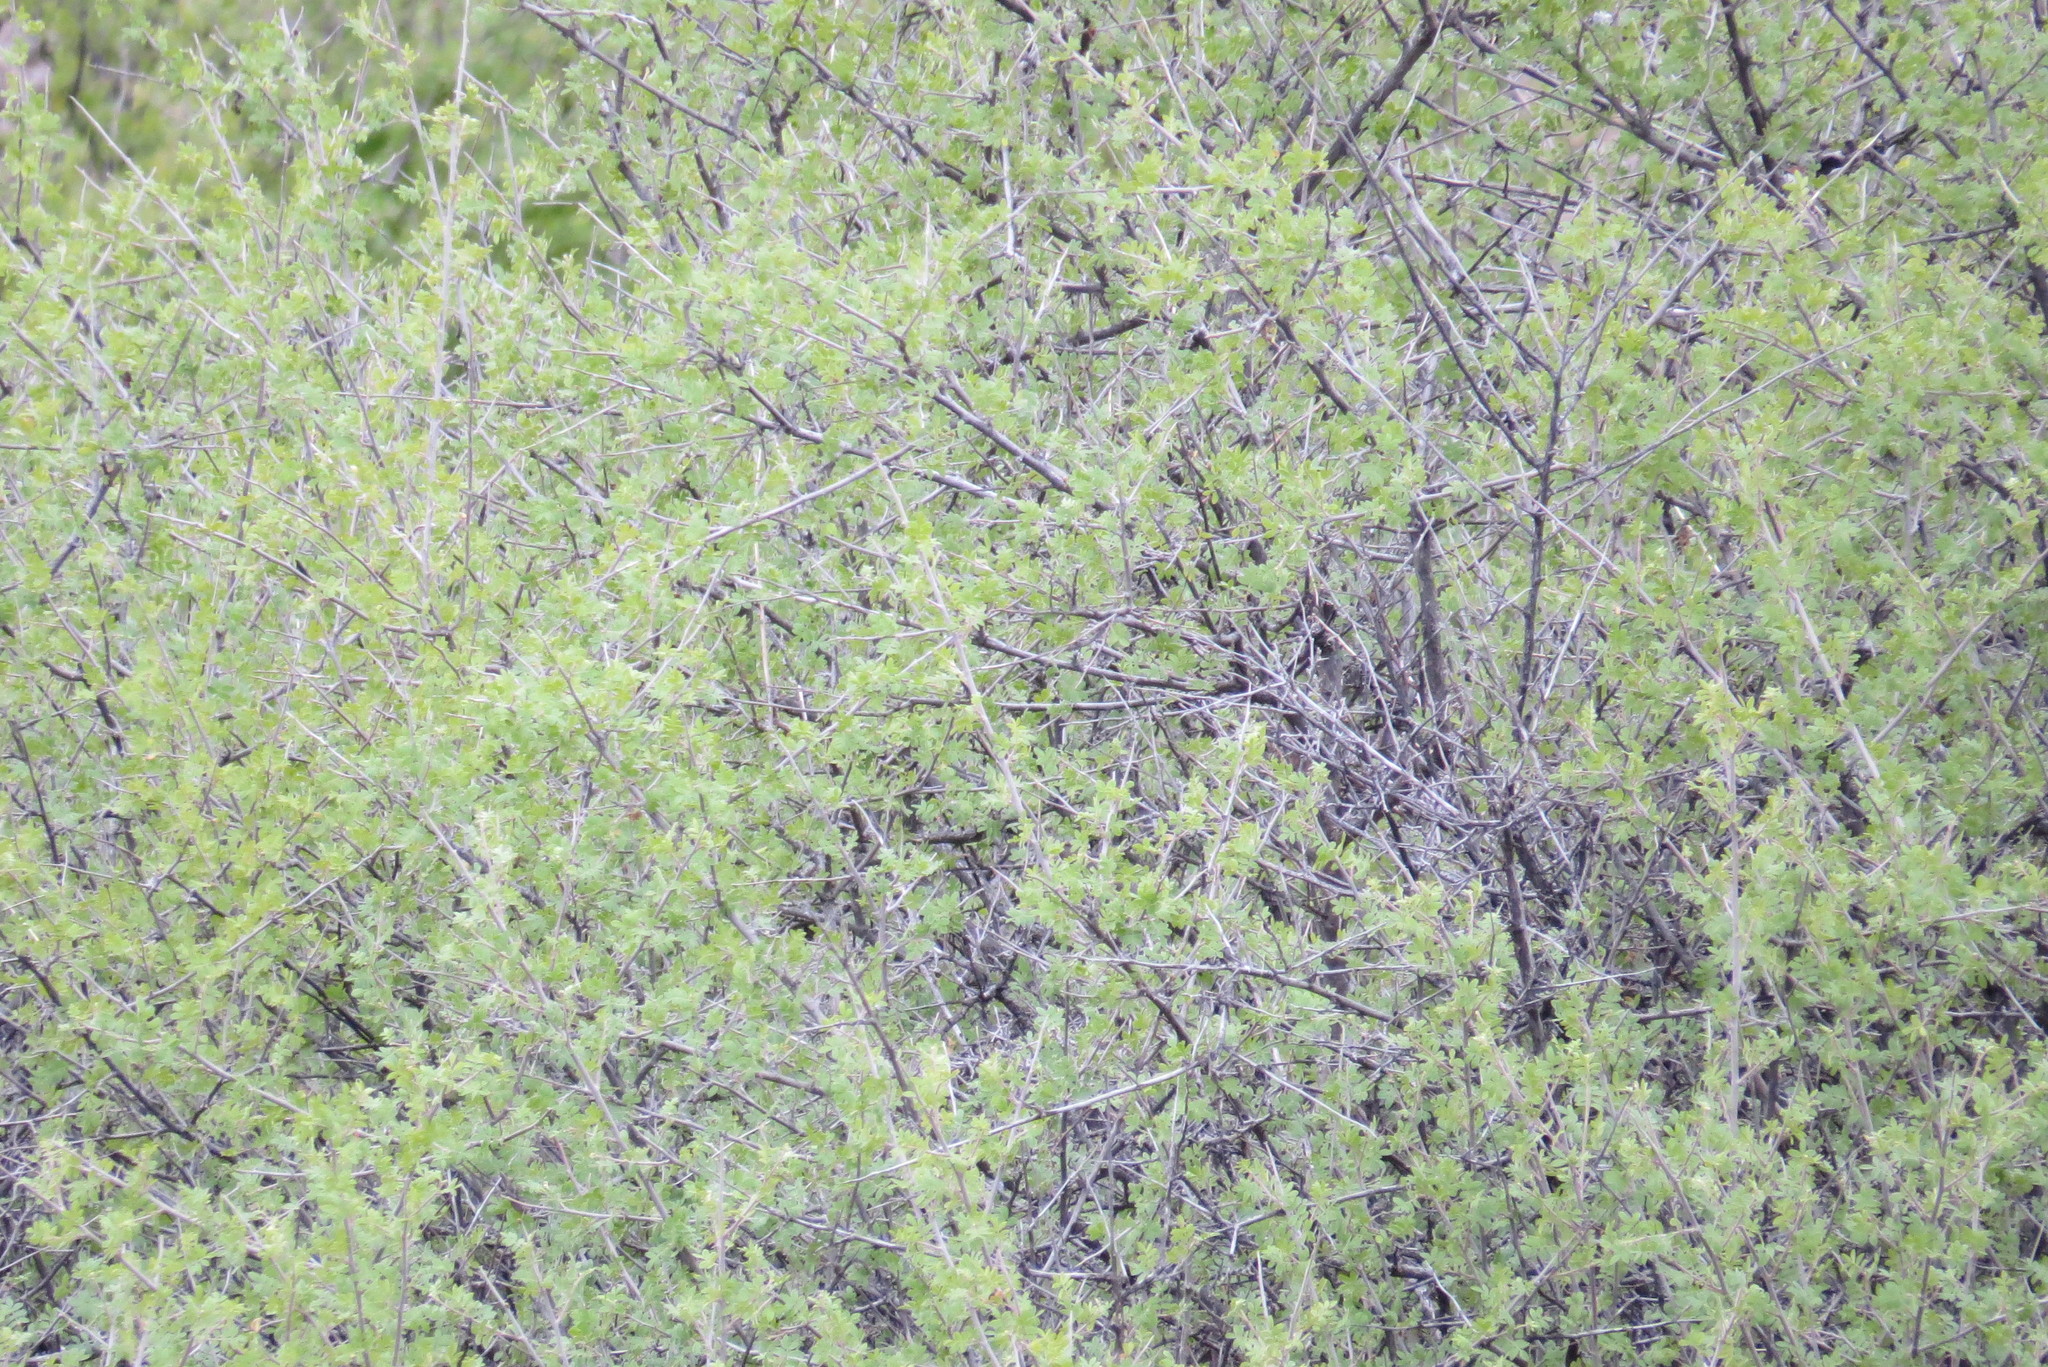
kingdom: Plantae
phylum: Tracheophyta
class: Magnoliopsida
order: Sapindales
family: Anacardiaceae
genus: Rhus
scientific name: Rhus microphylla
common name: Desert sumac
